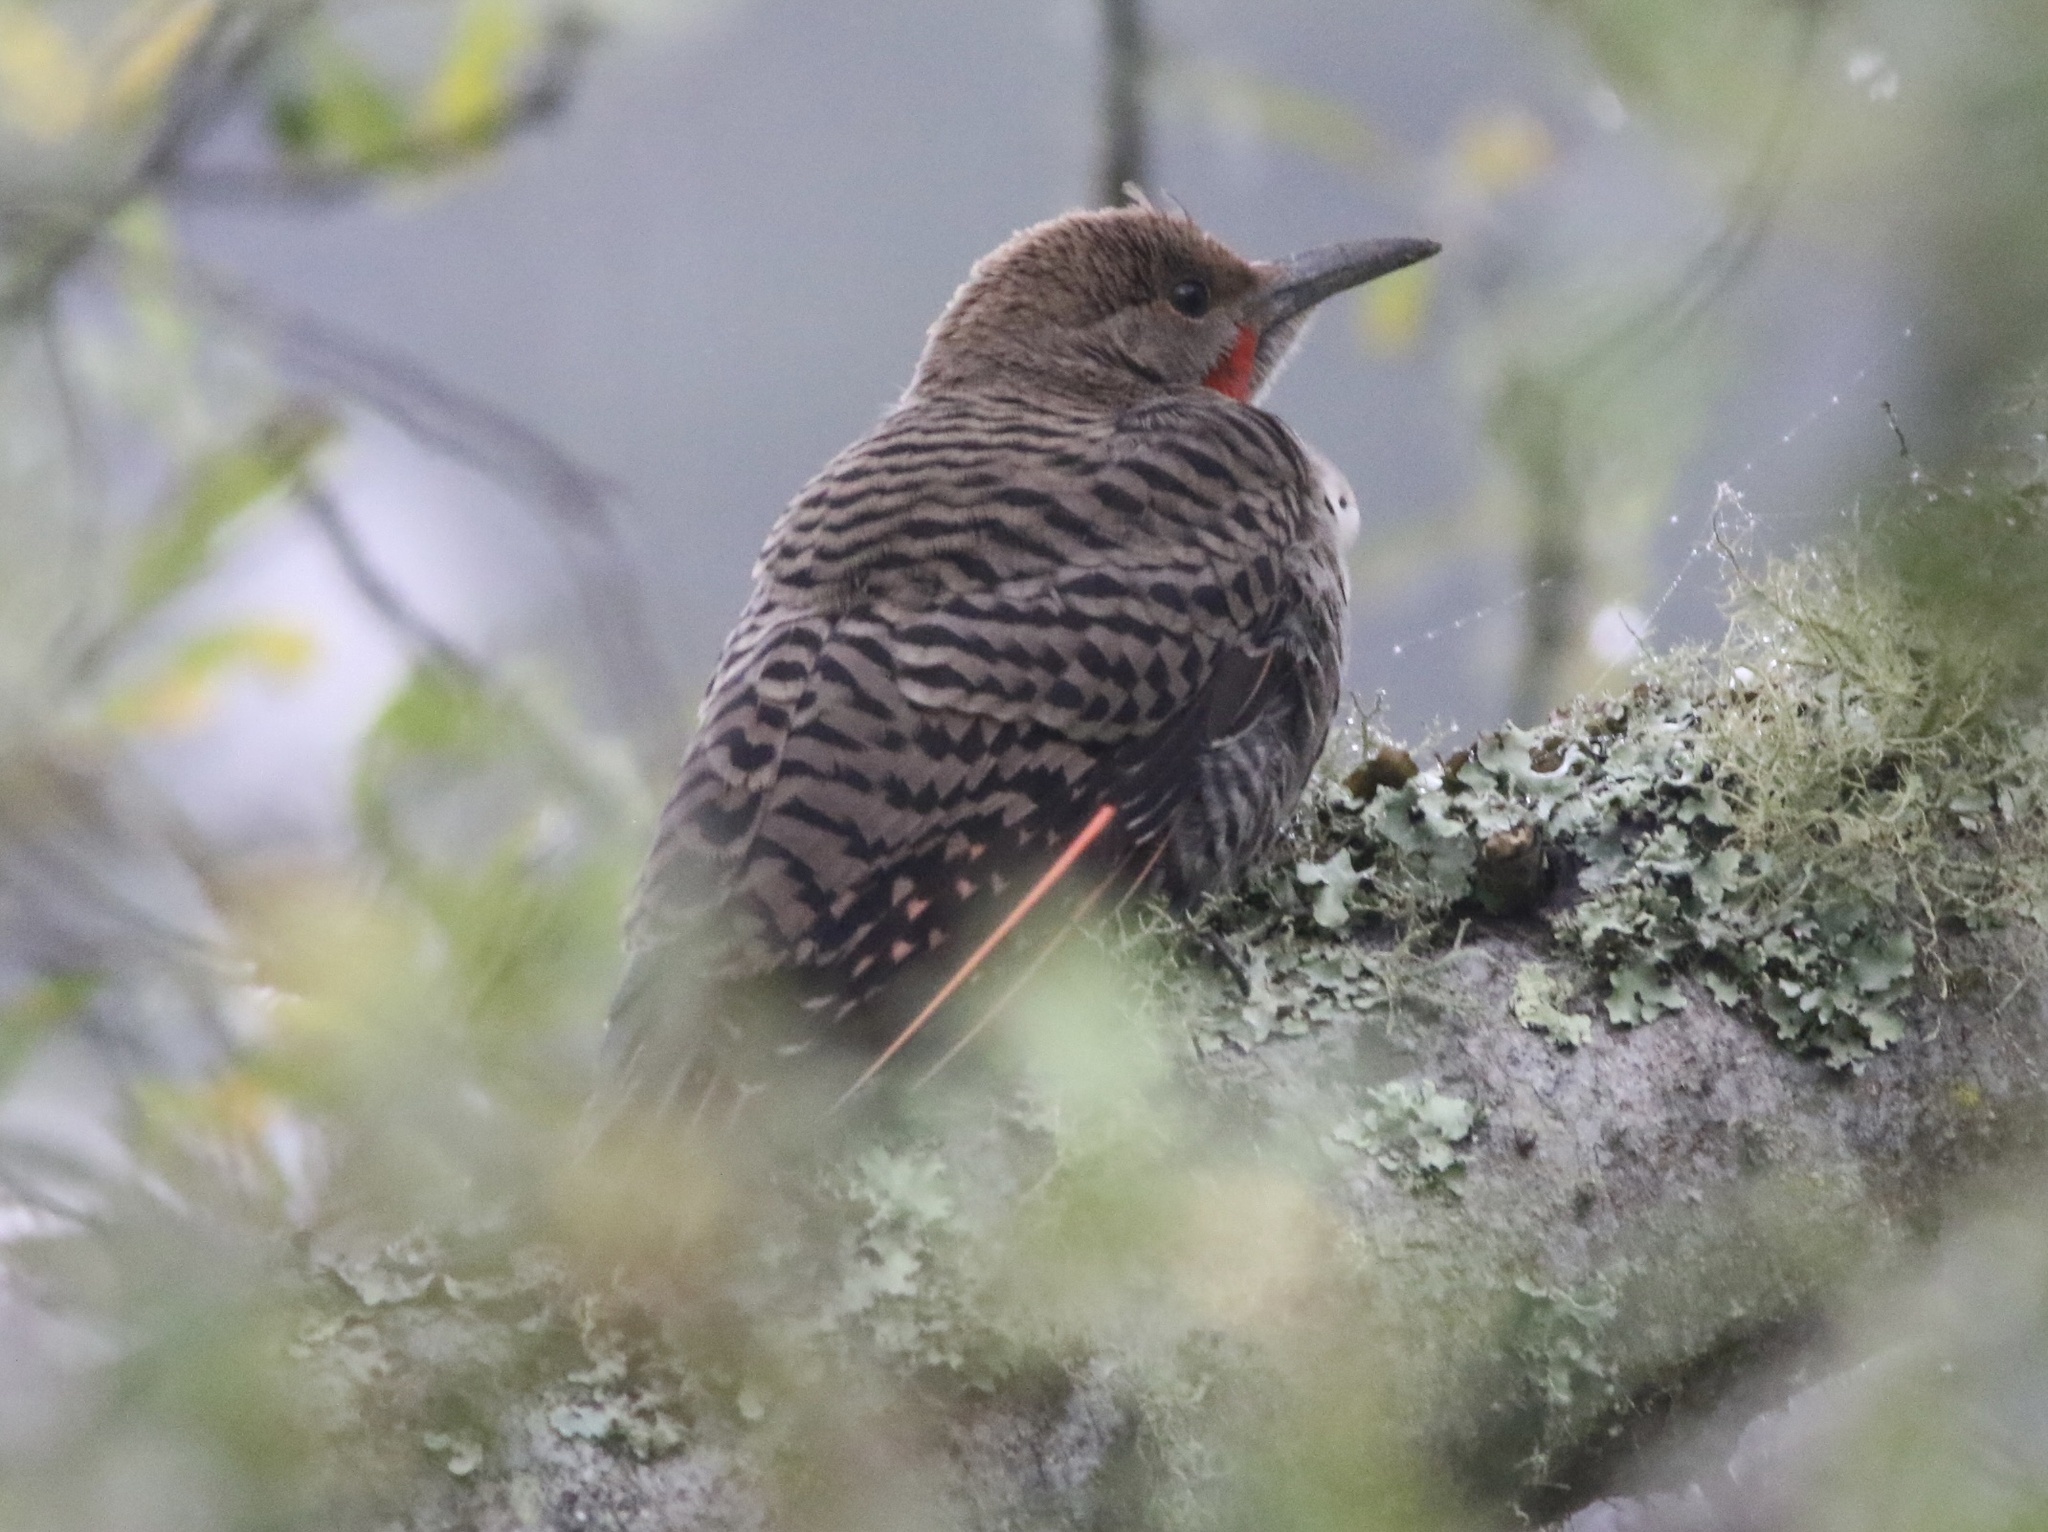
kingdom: Animalia
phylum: Chordata
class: Aves
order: Piciformes
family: Picidae
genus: Colaptes
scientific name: Colaptes auratus
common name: Northern flicker
